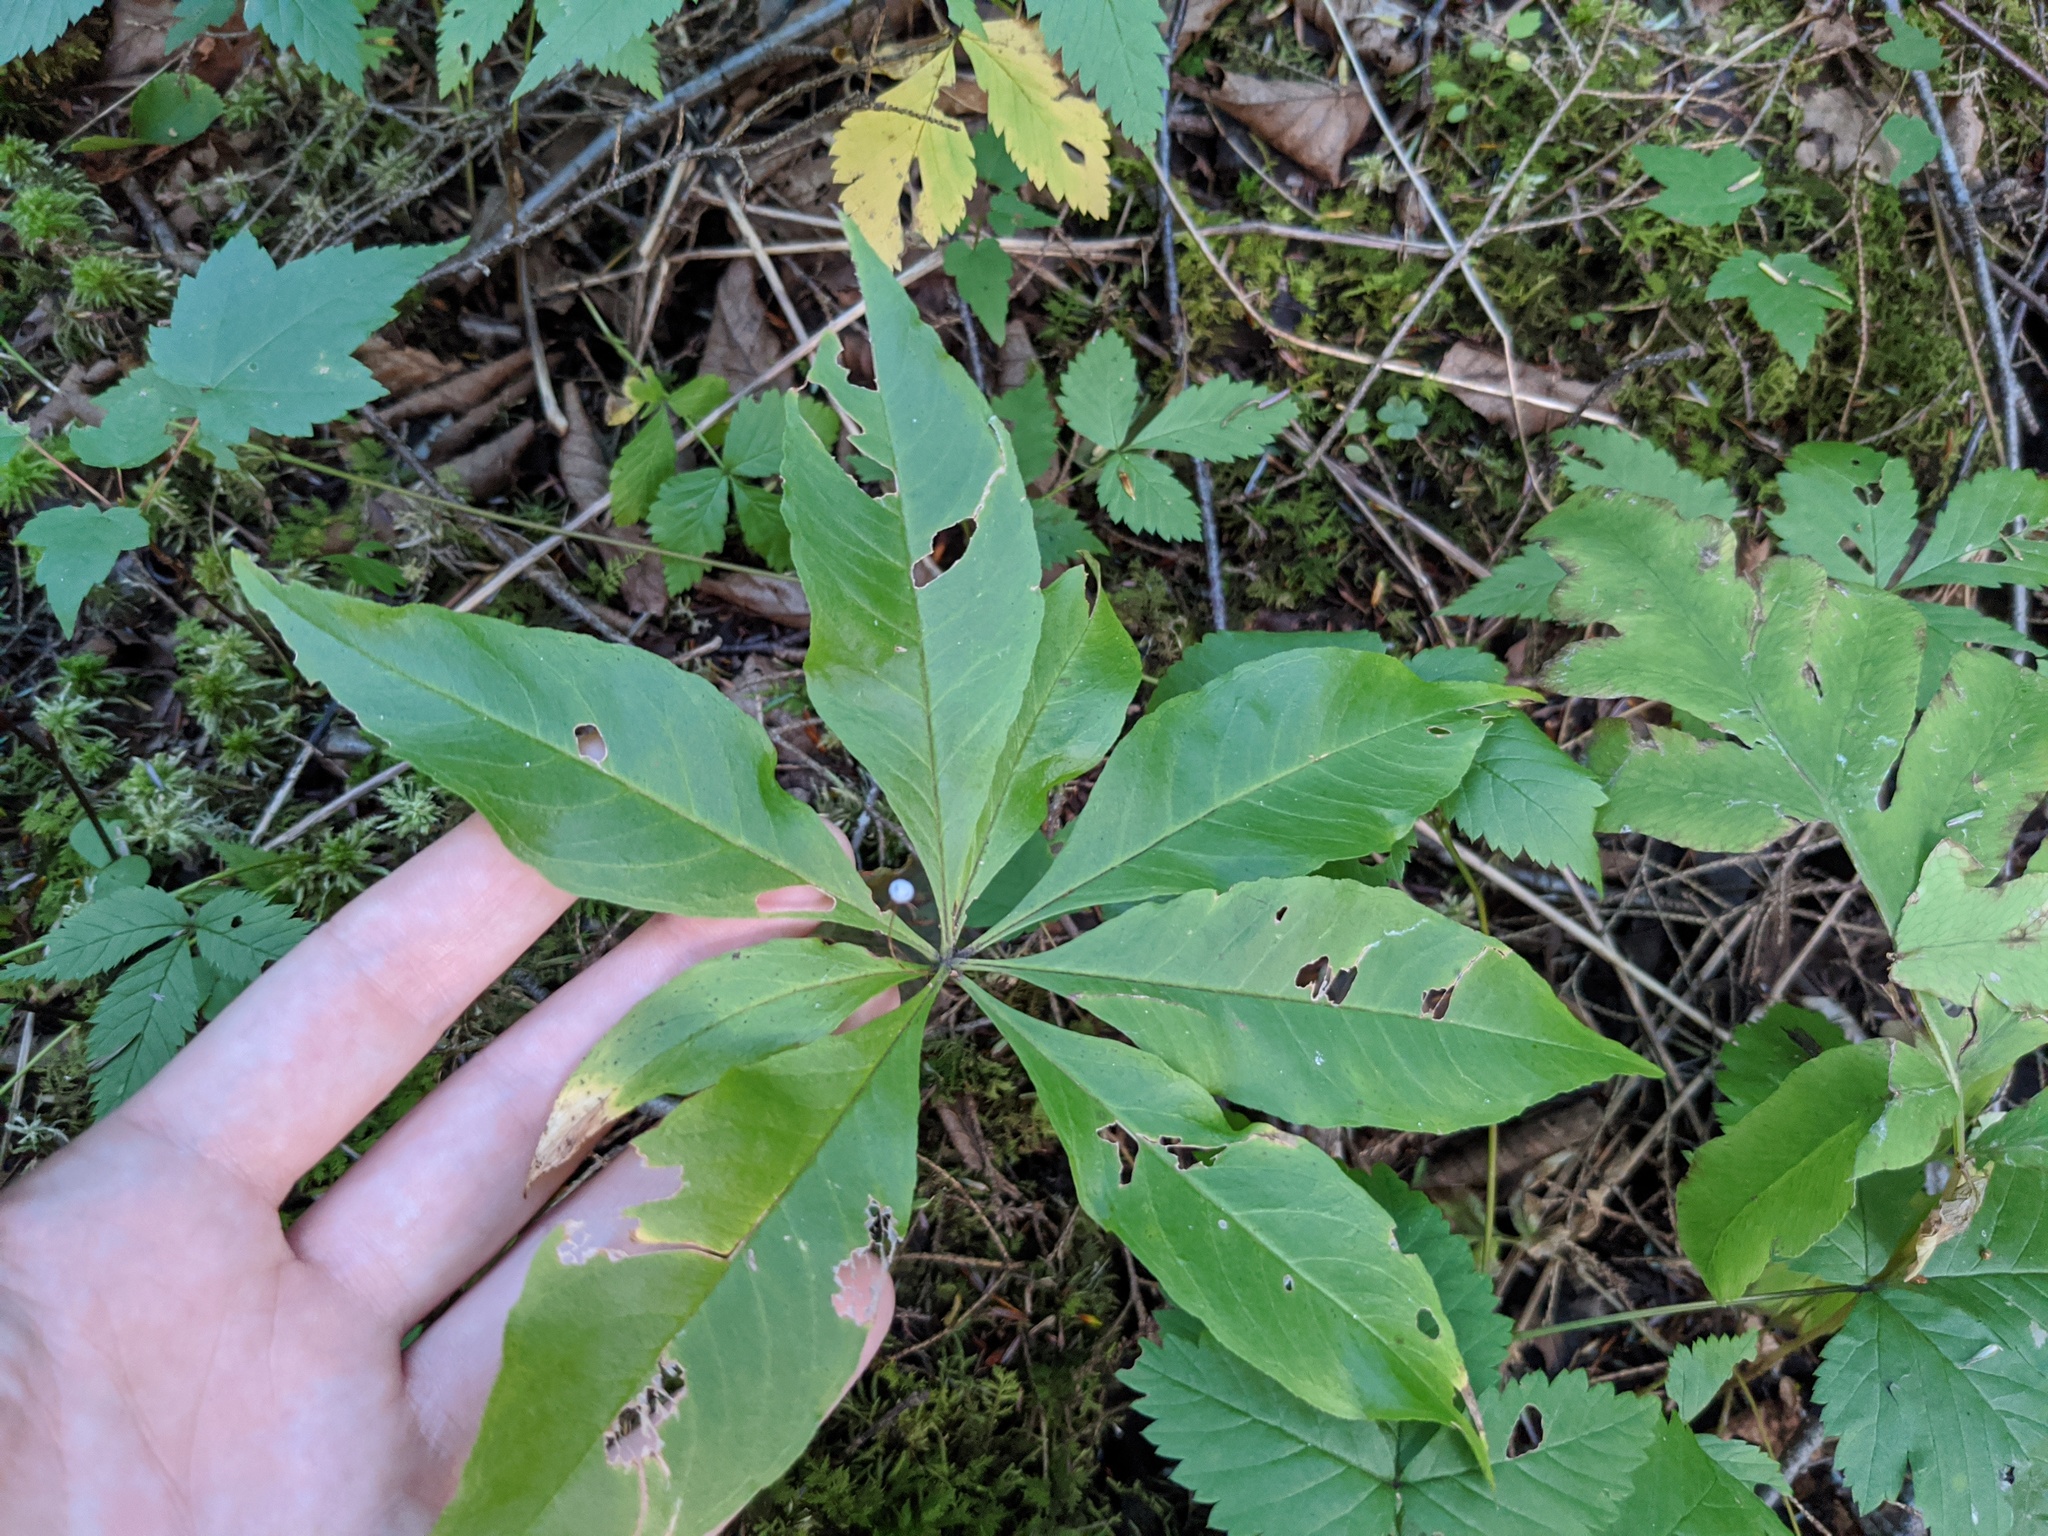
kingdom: Plantae
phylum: Tracheophyta
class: Magnoliopsida
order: Ericales
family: Primulaceae
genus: Lysimachia
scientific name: Lysimachia borealis
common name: American starflower
